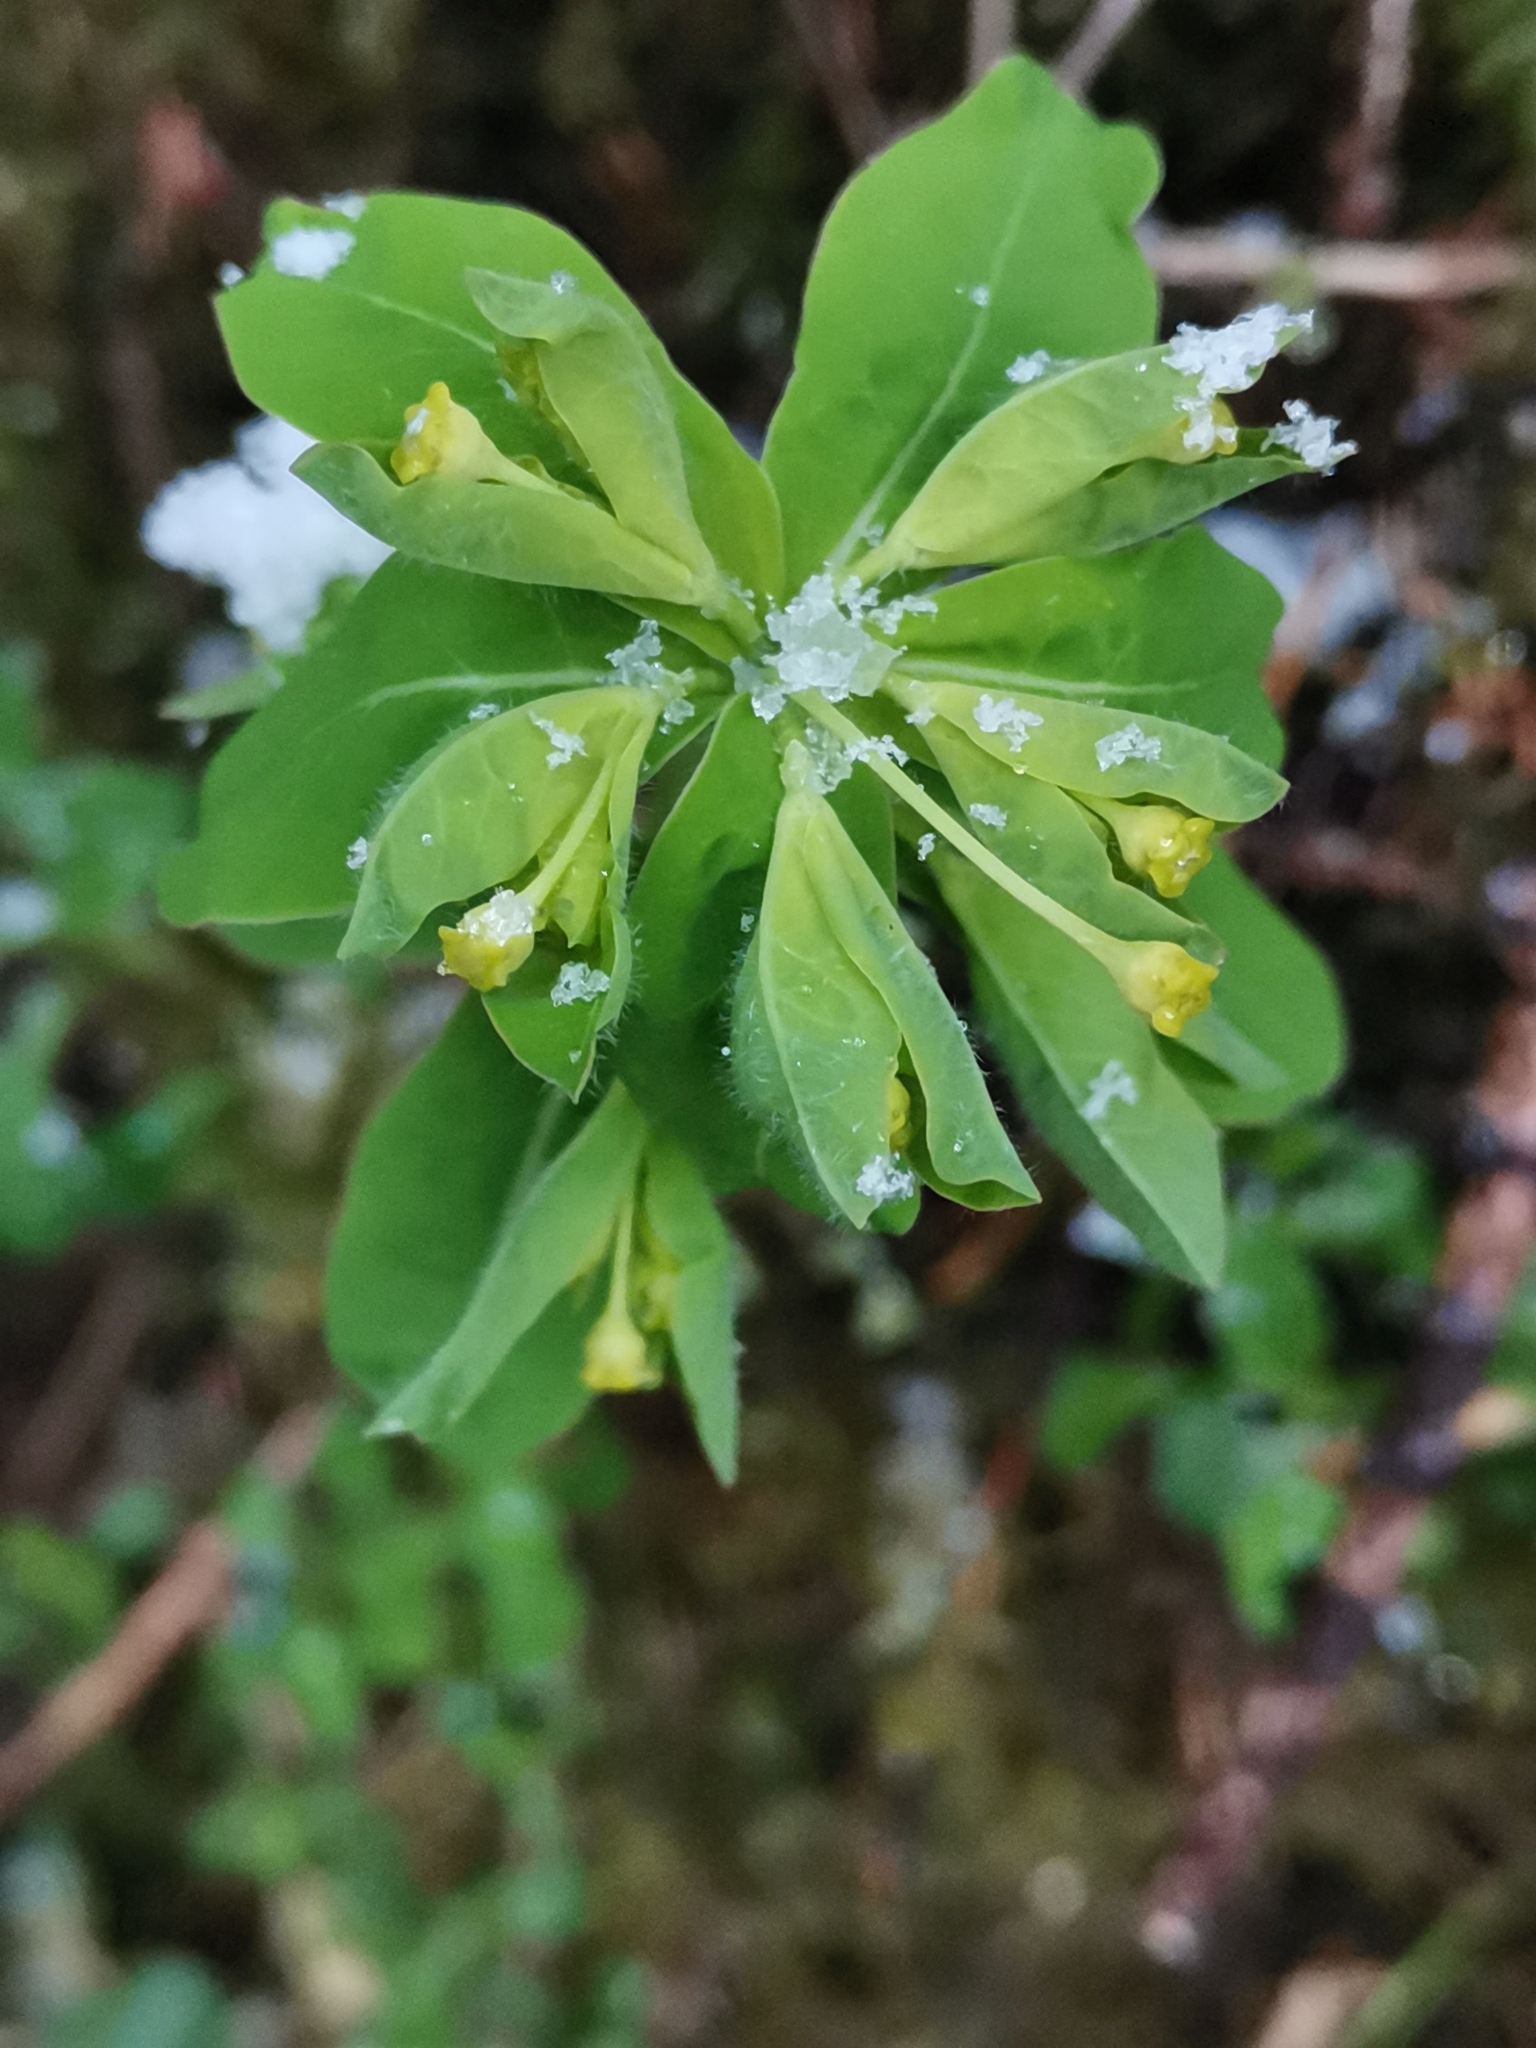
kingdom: Plantae
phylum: Tracheophyta
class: Magnoliopsida
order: Malpighiales
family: Euphorbiaceae
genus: Euphorbia
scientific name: Euphorbia carniolica
